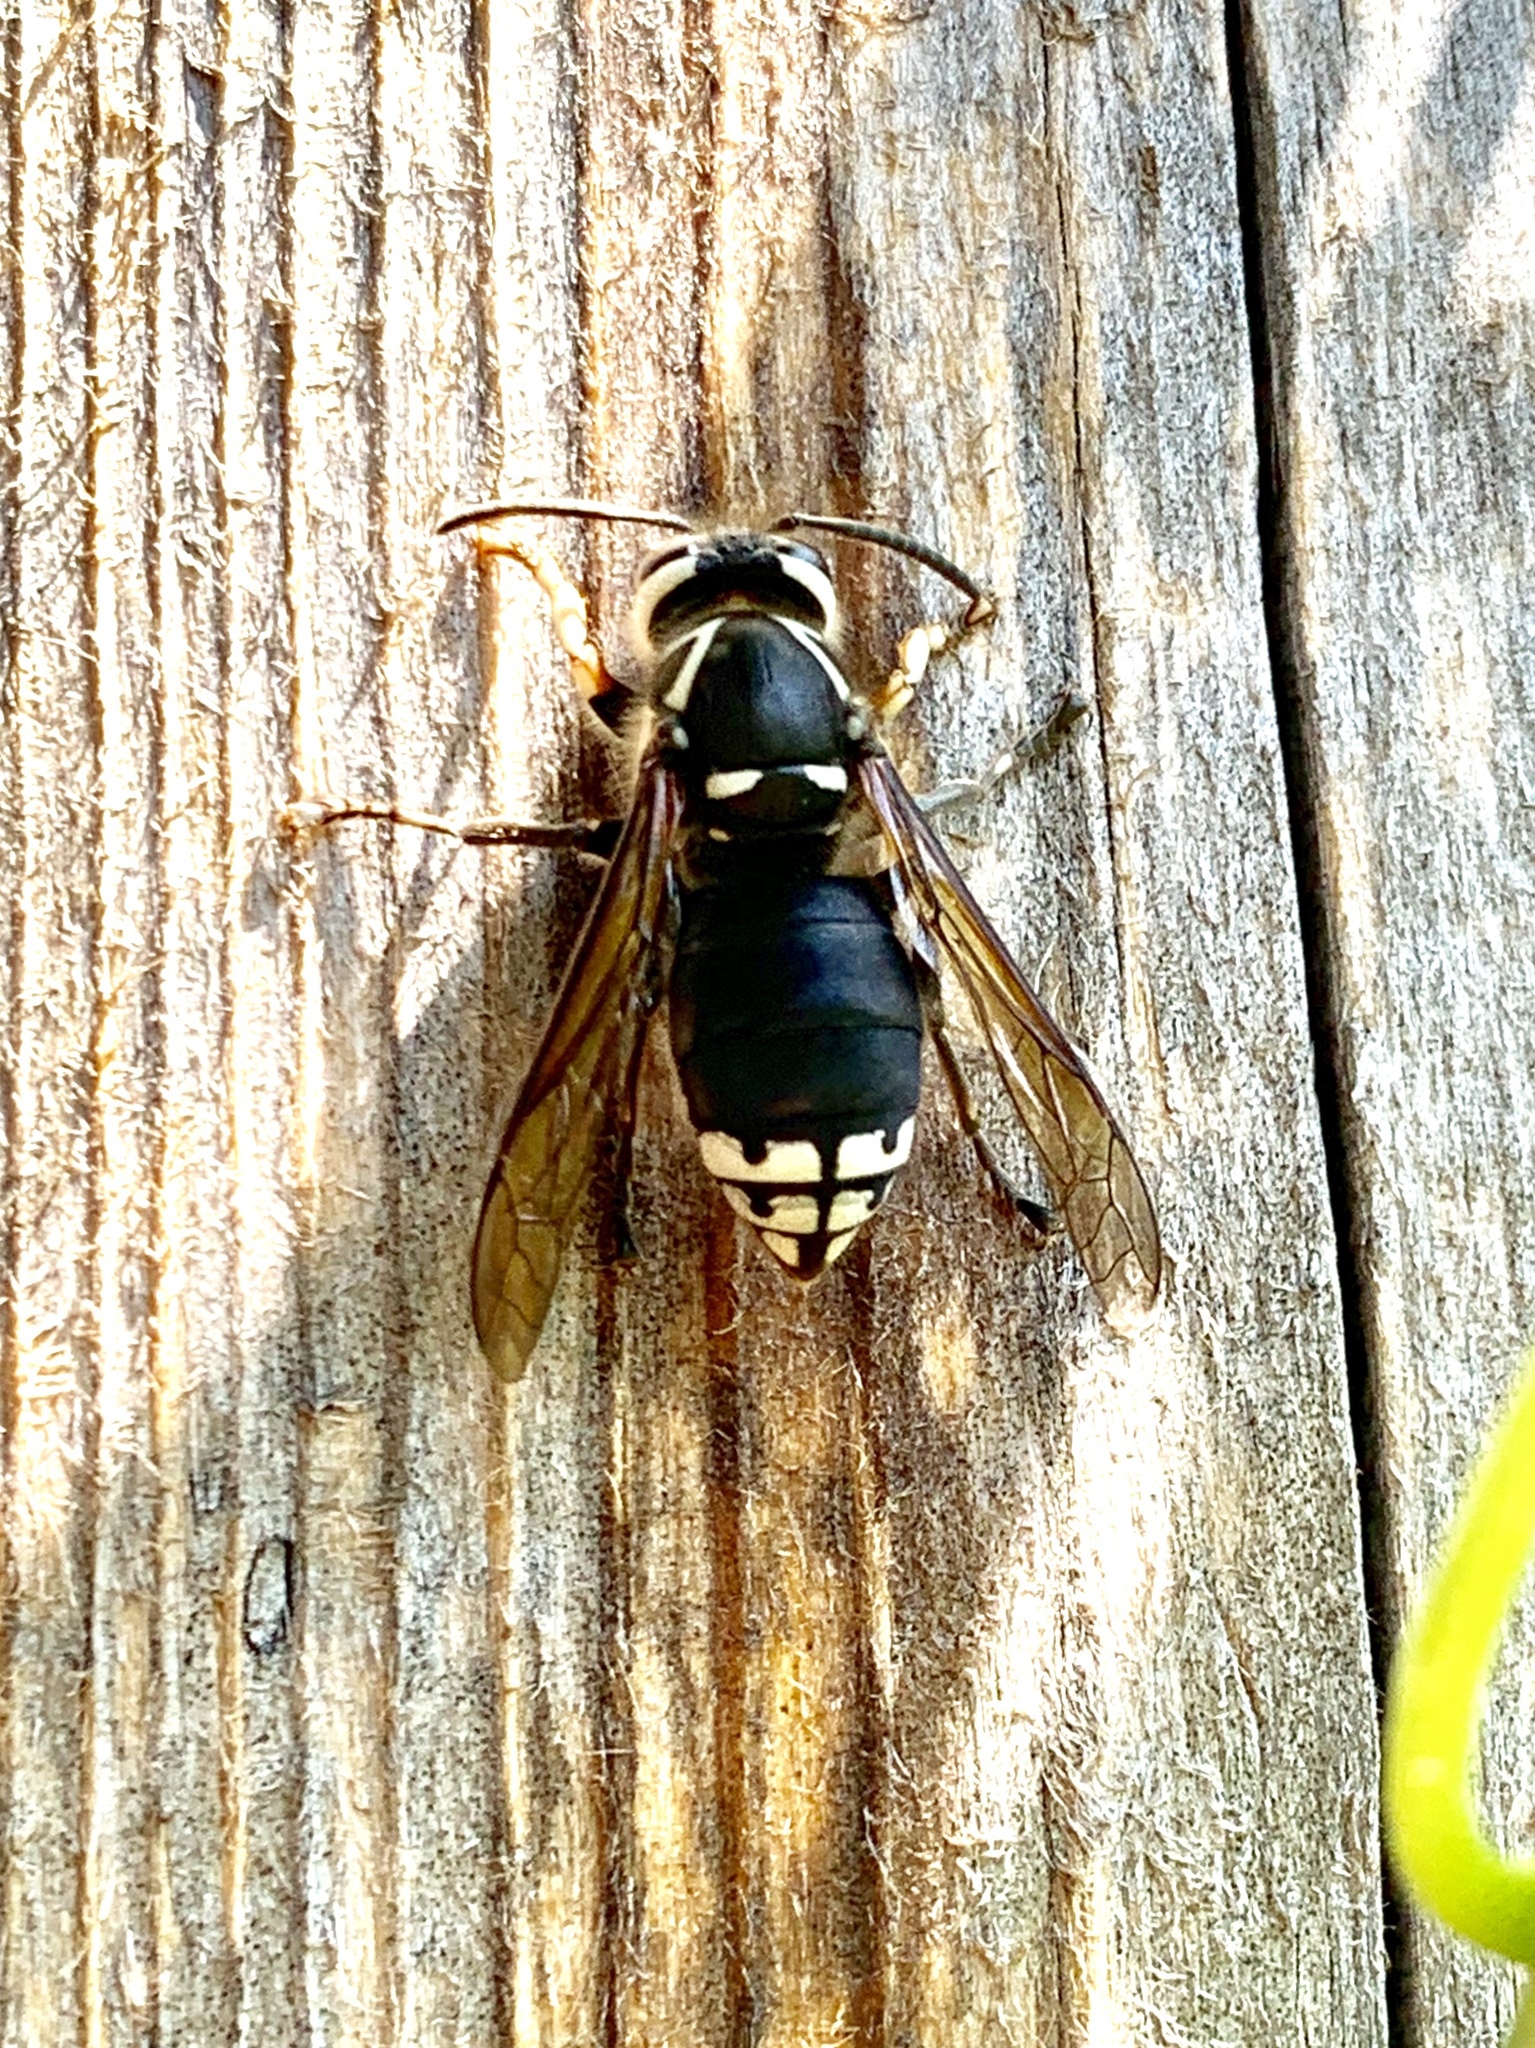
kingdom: Animalia
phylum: Arthropoda
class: Insecta
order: Hymenoptera
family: Vespidae
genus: Dolichovespula
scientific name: Dolichovespula maculata
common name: Bald-faced hornet
